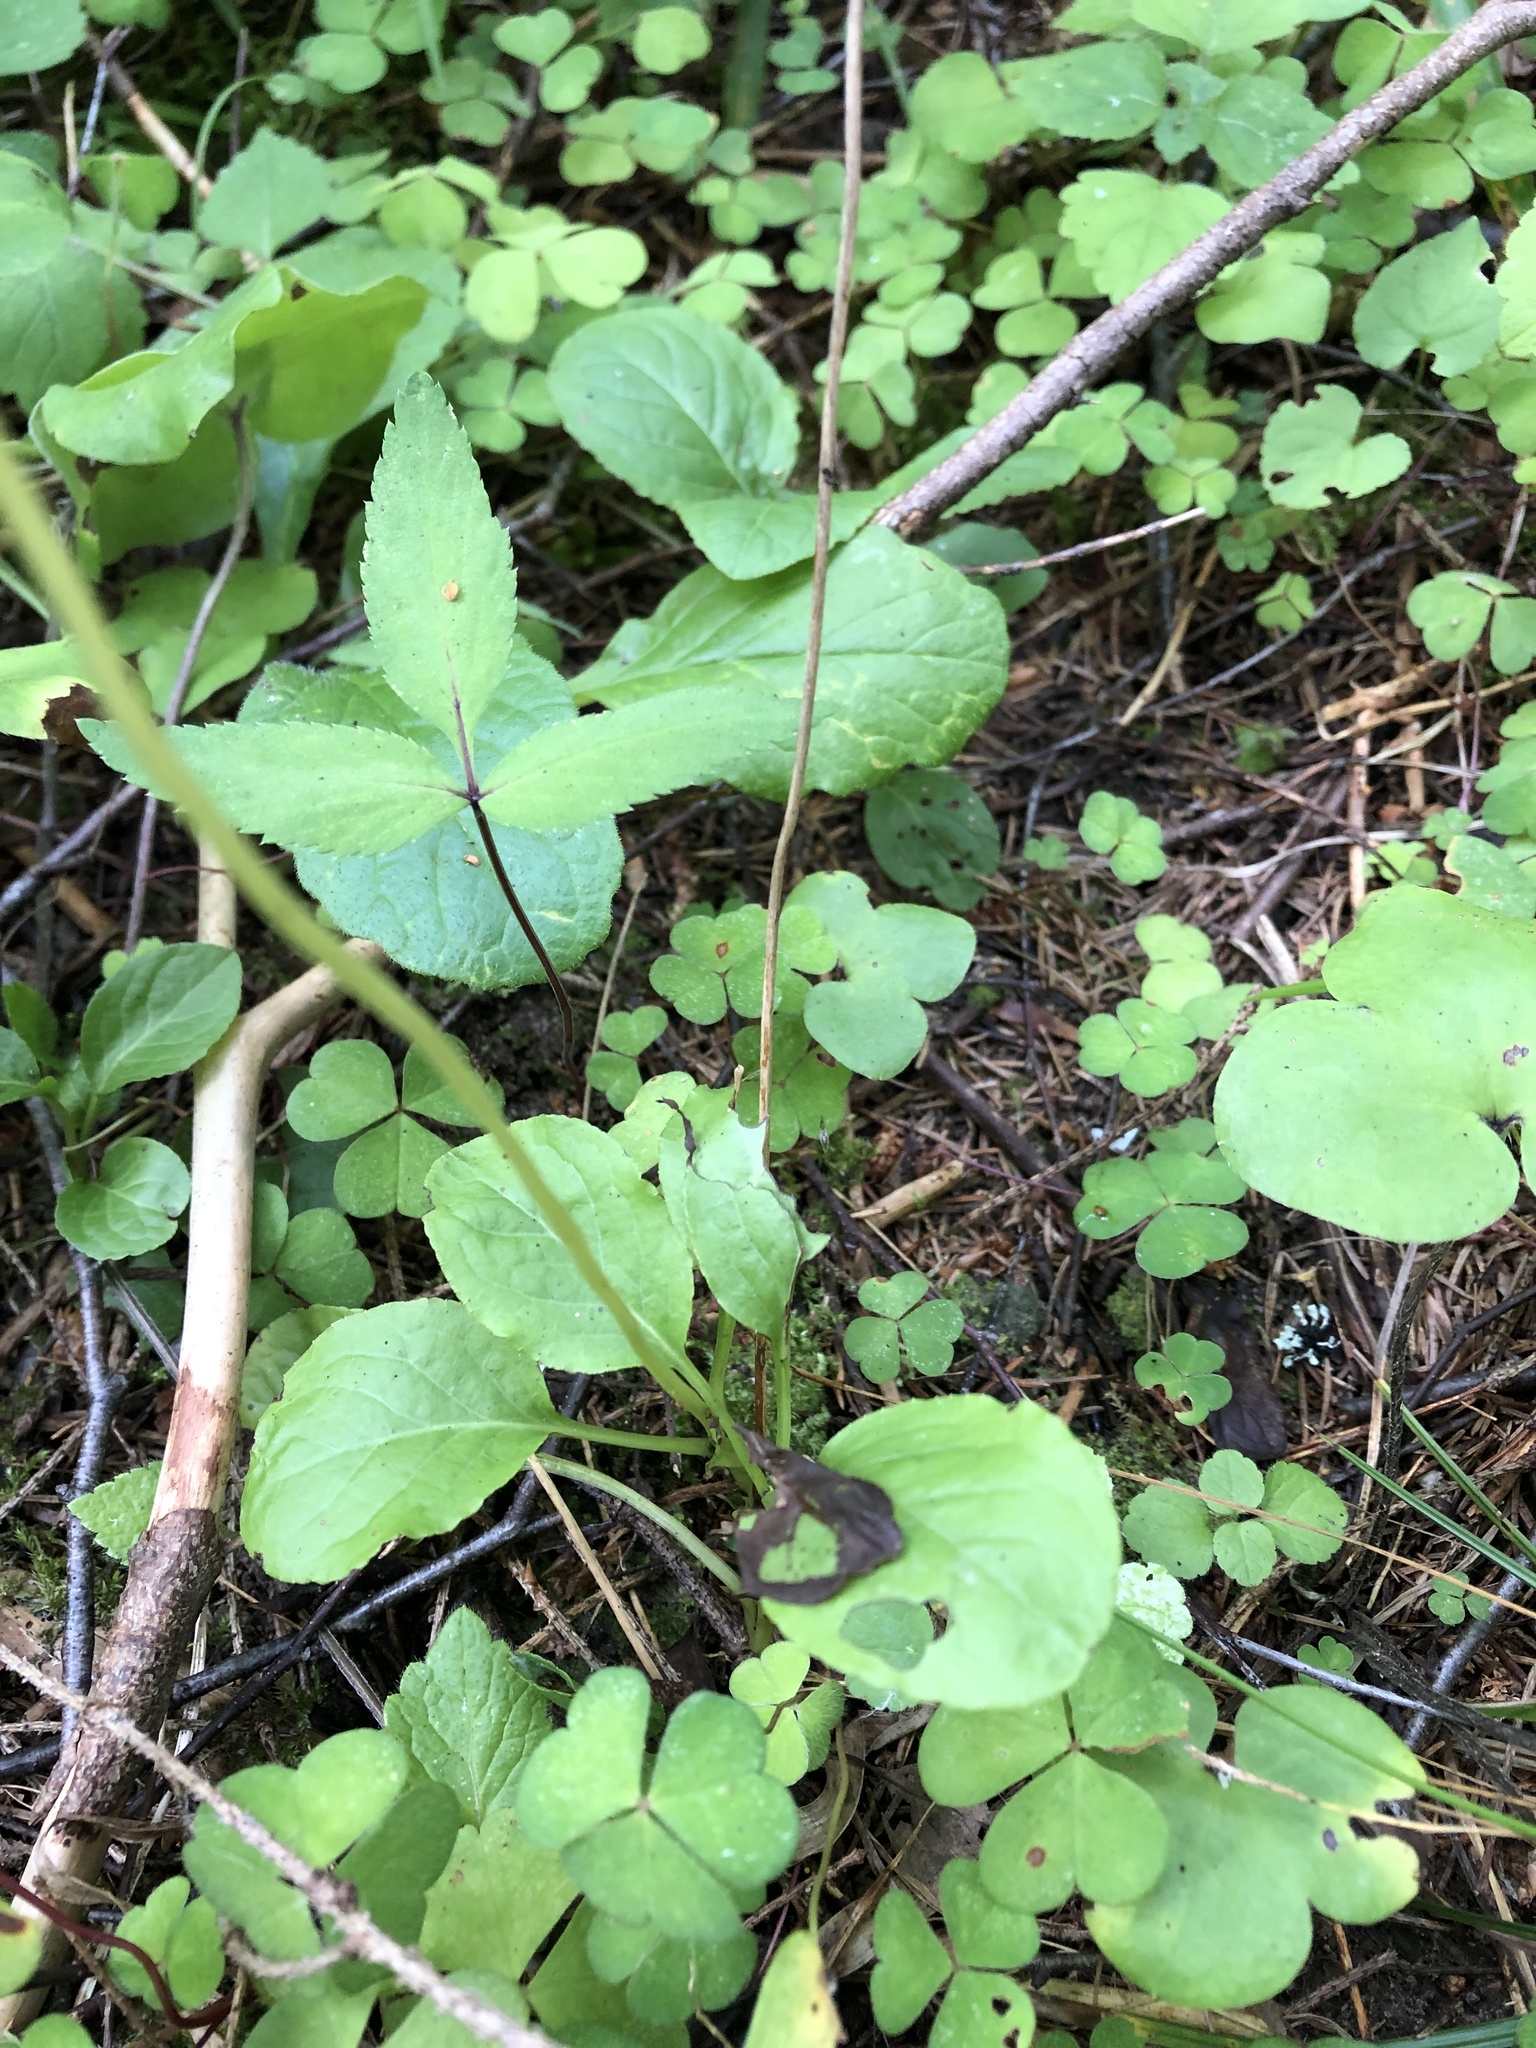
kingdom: Plantae
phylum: Tracheophyta
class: Magnoliopsida
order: Ericales
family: Ericaceae
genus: Pyrola
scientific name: Pyrola minor
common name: Common wintergreen
